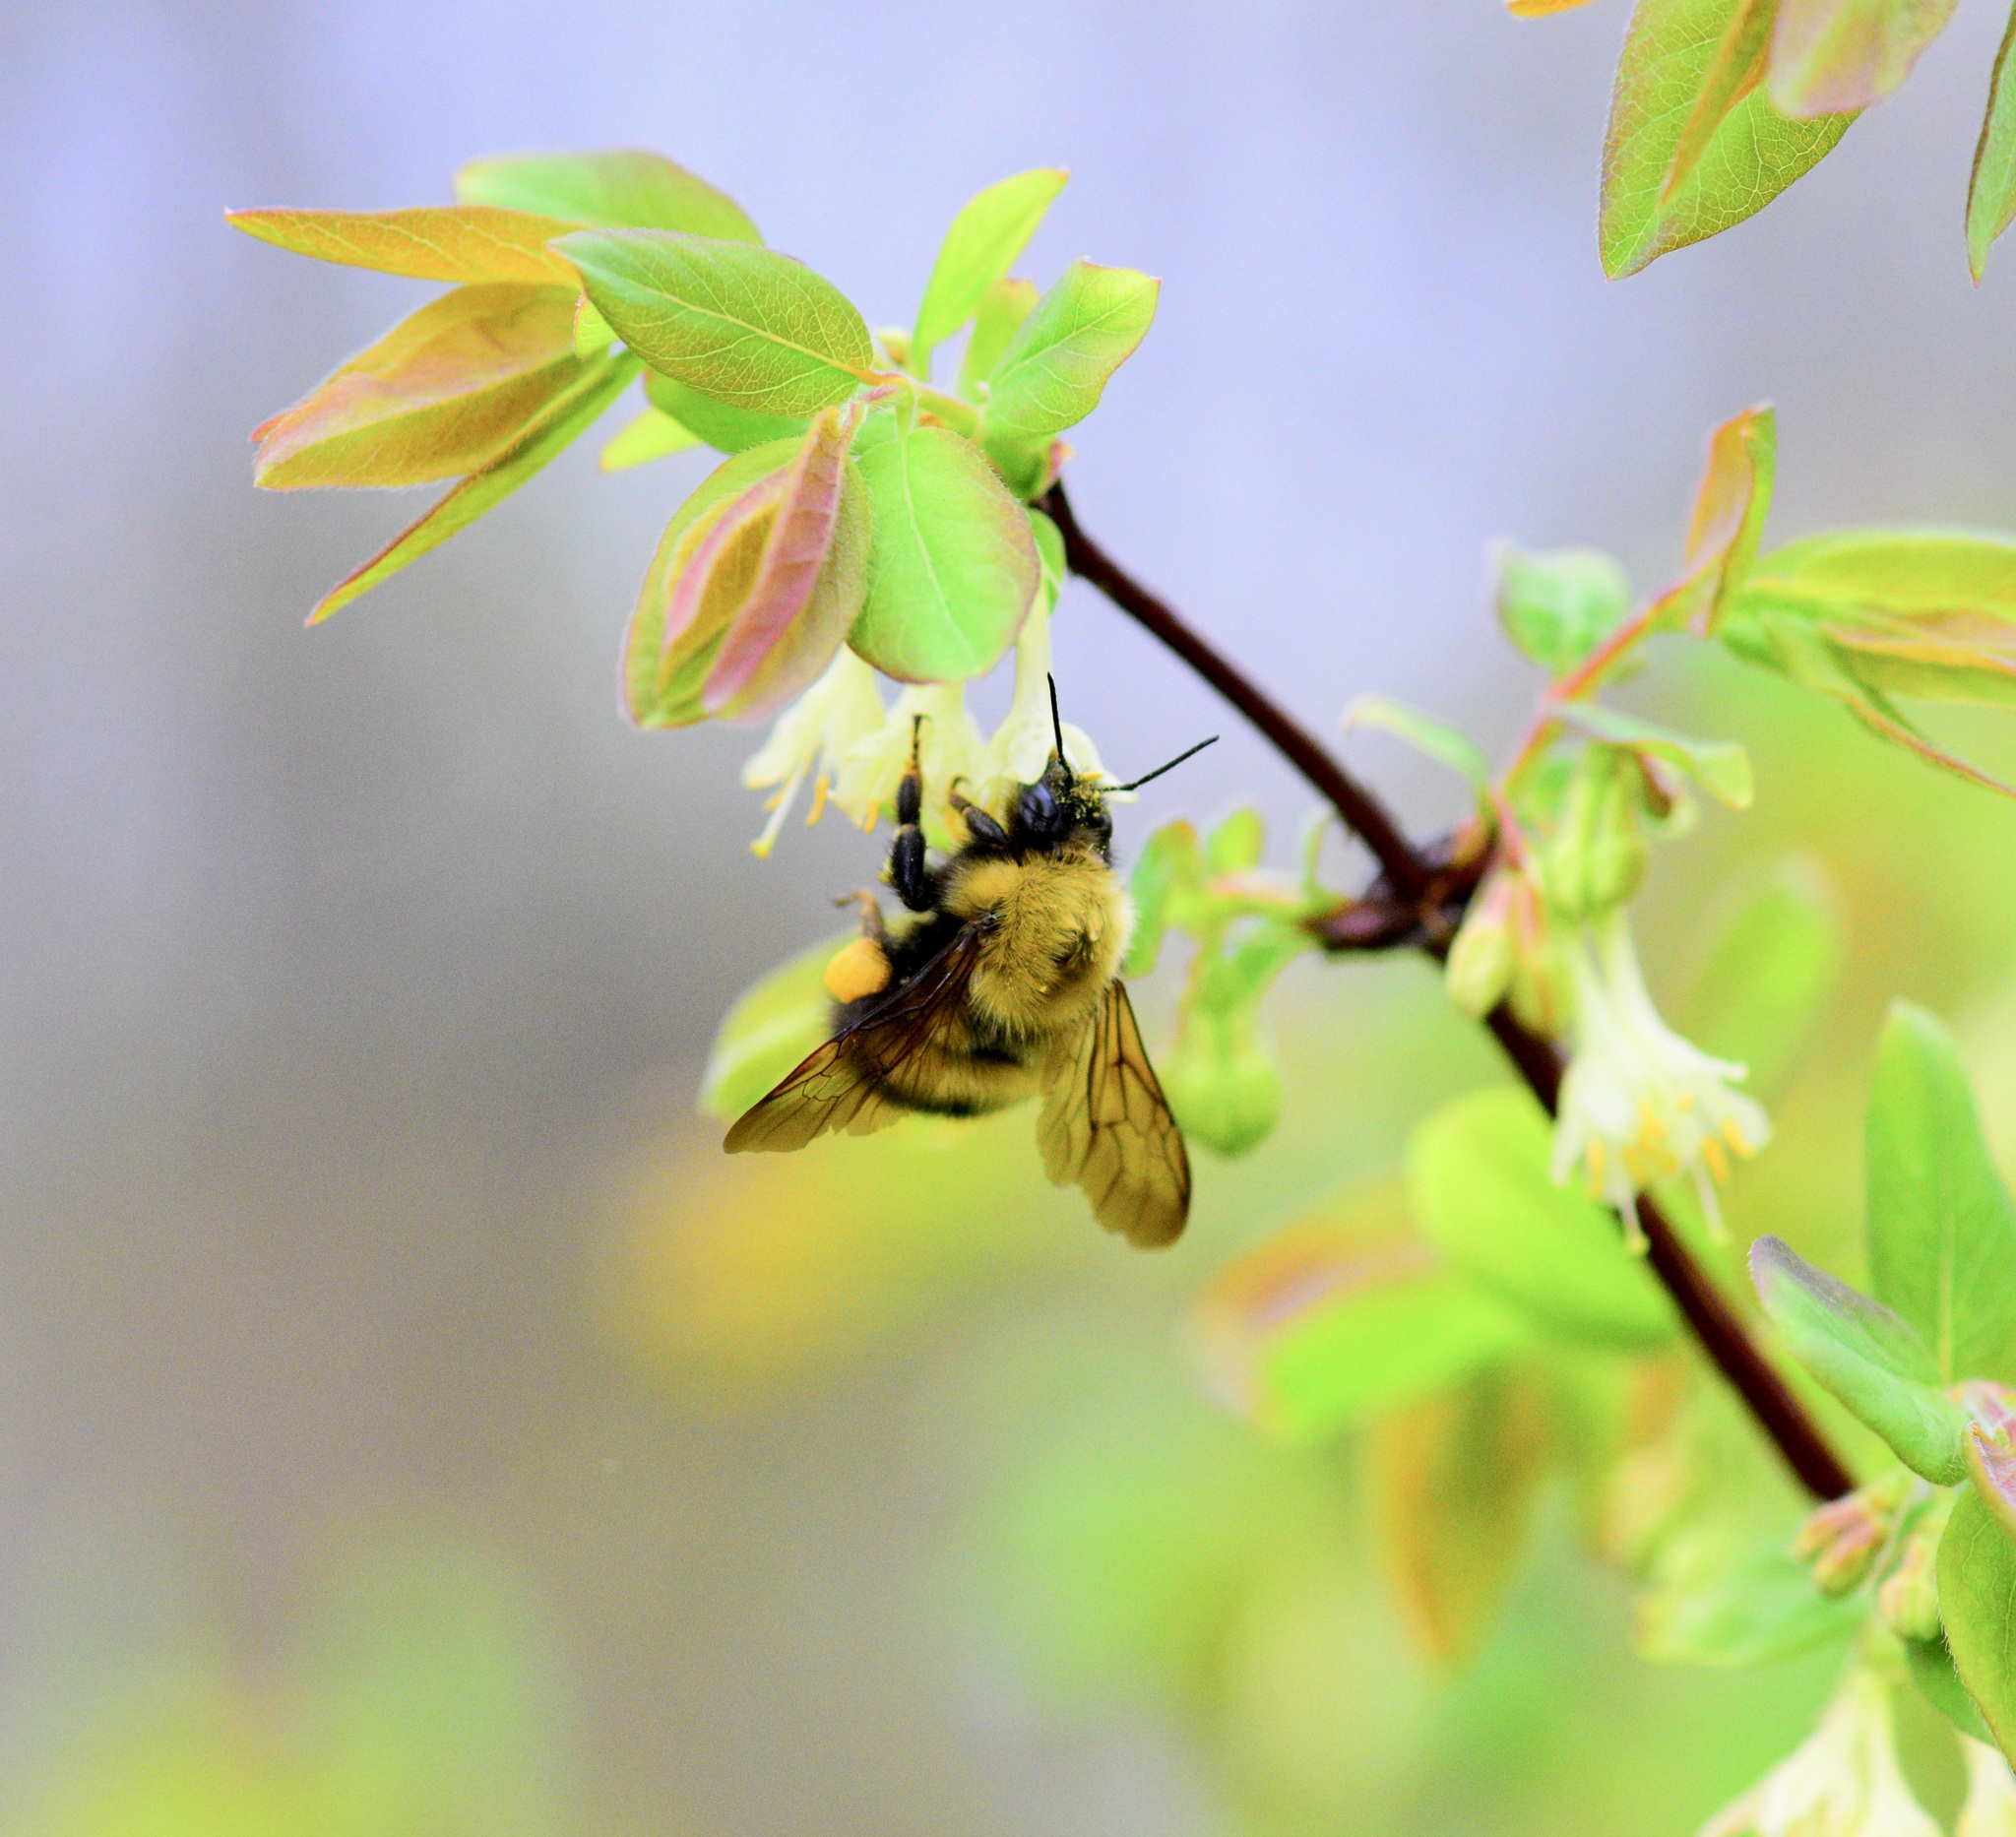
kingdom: Animalia
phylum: Arthropoda
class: Insecta
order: Hymenoptera
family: Apidae
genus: Bombus
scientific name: Bombus perplexus
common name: Confusing bumble bee
